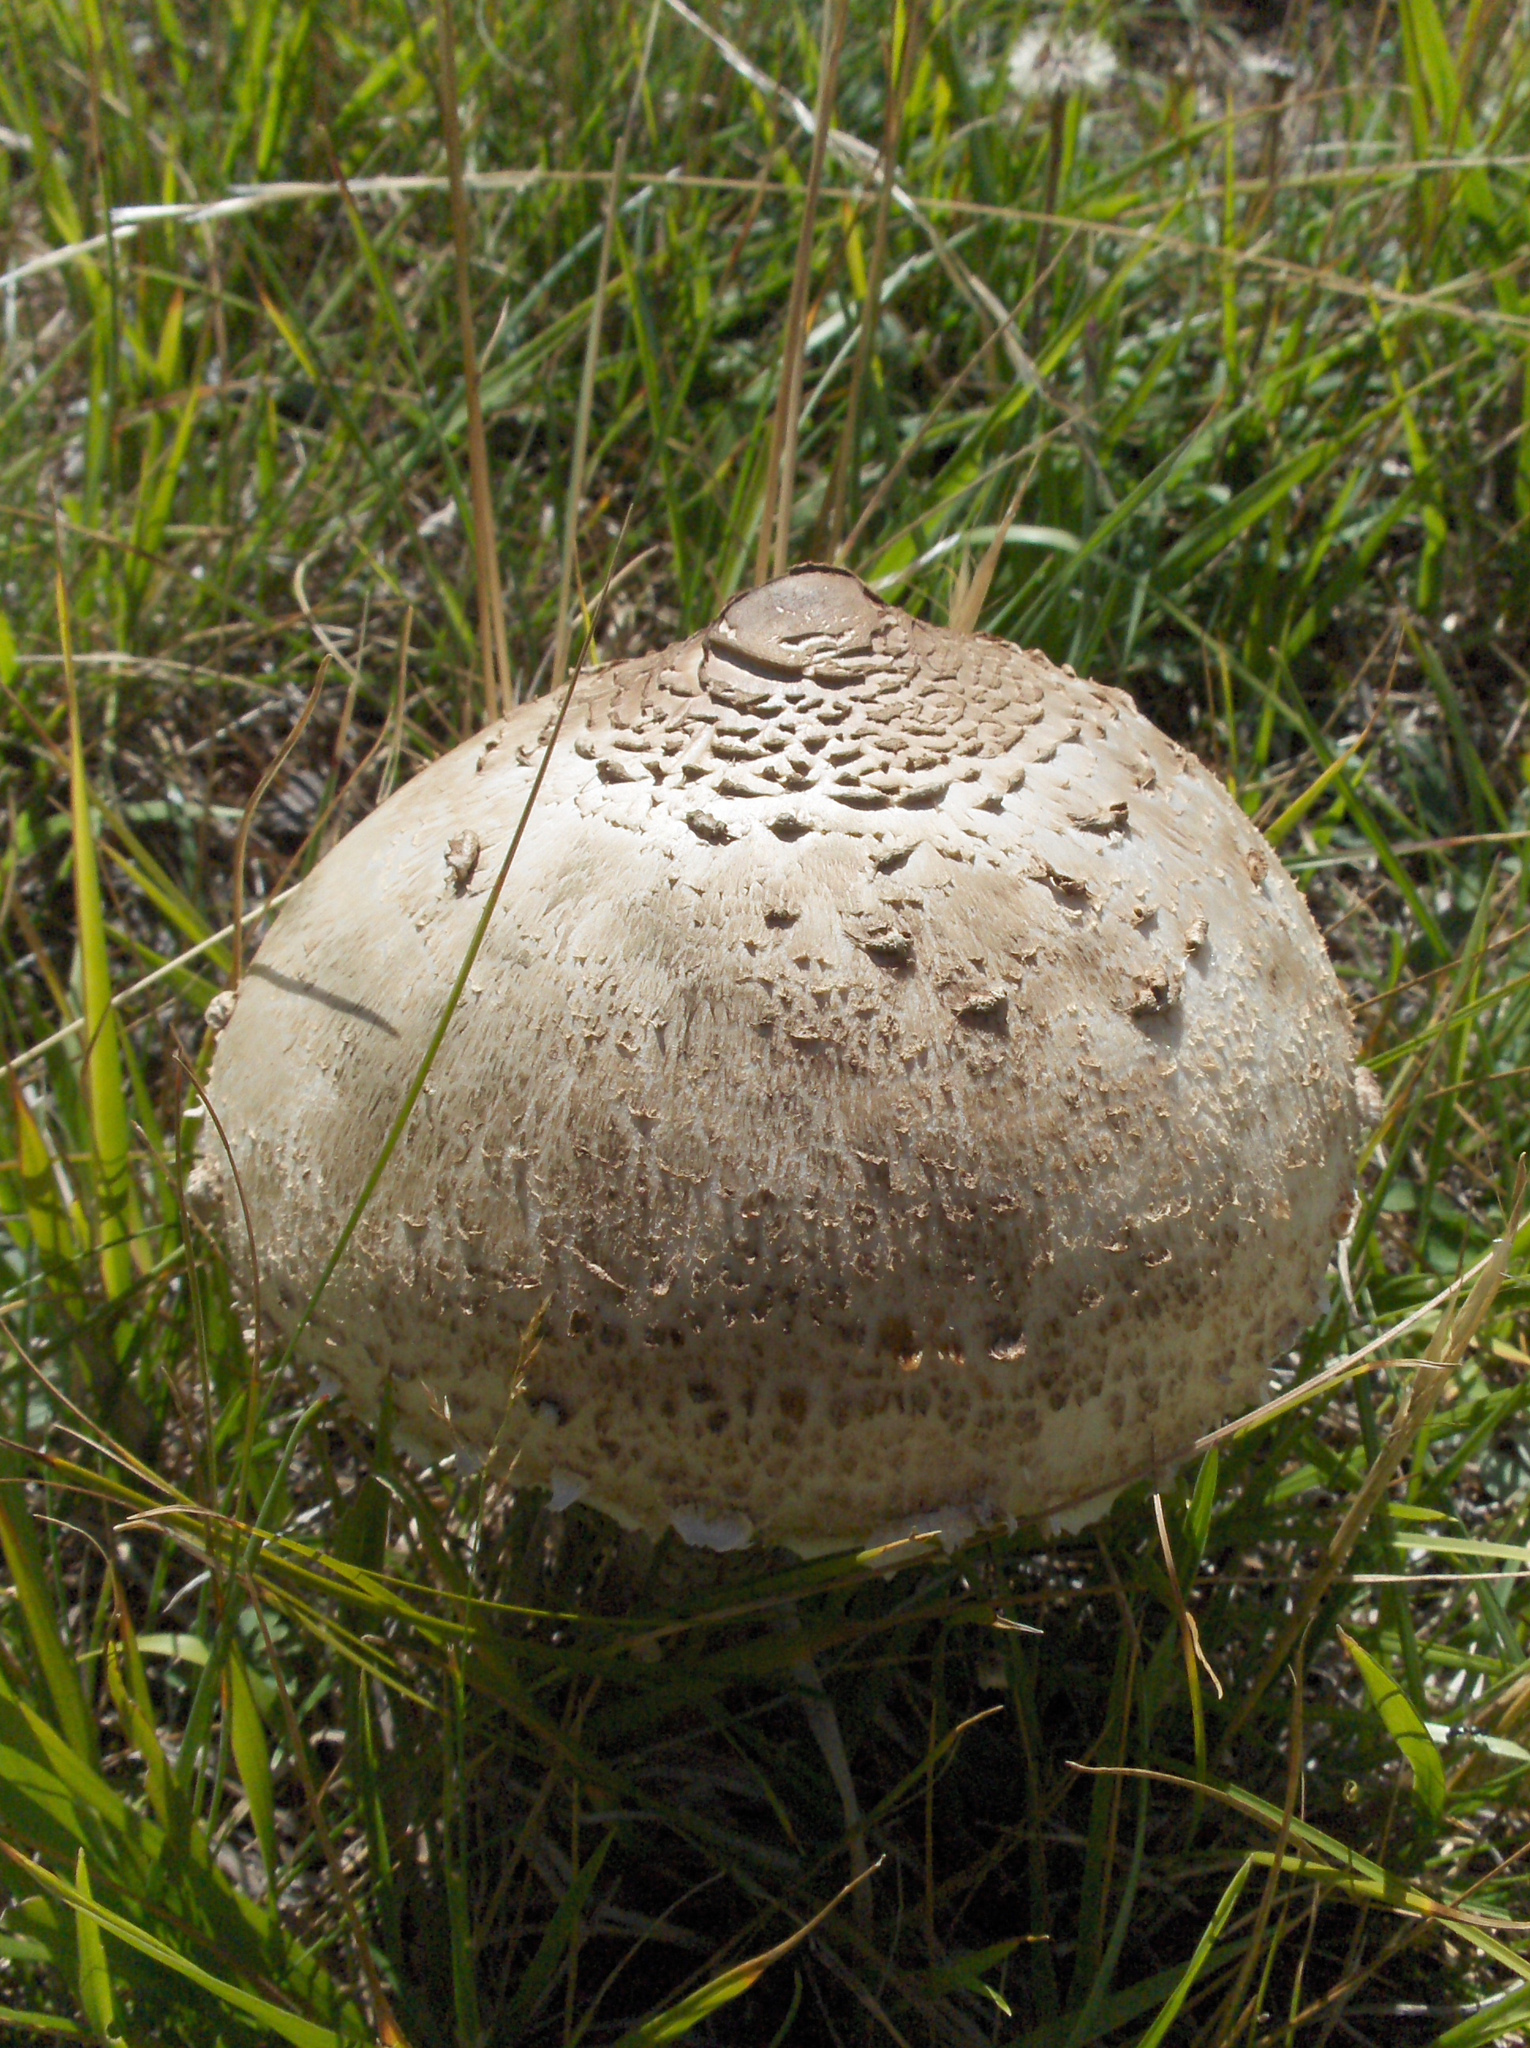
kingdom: Fungi
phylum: Basidiomycota
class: Agaricomycetes
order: Agaricales
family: Agaricaceae
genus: Macrolepiota
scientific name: Macrolepiota procera
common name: Parasol
